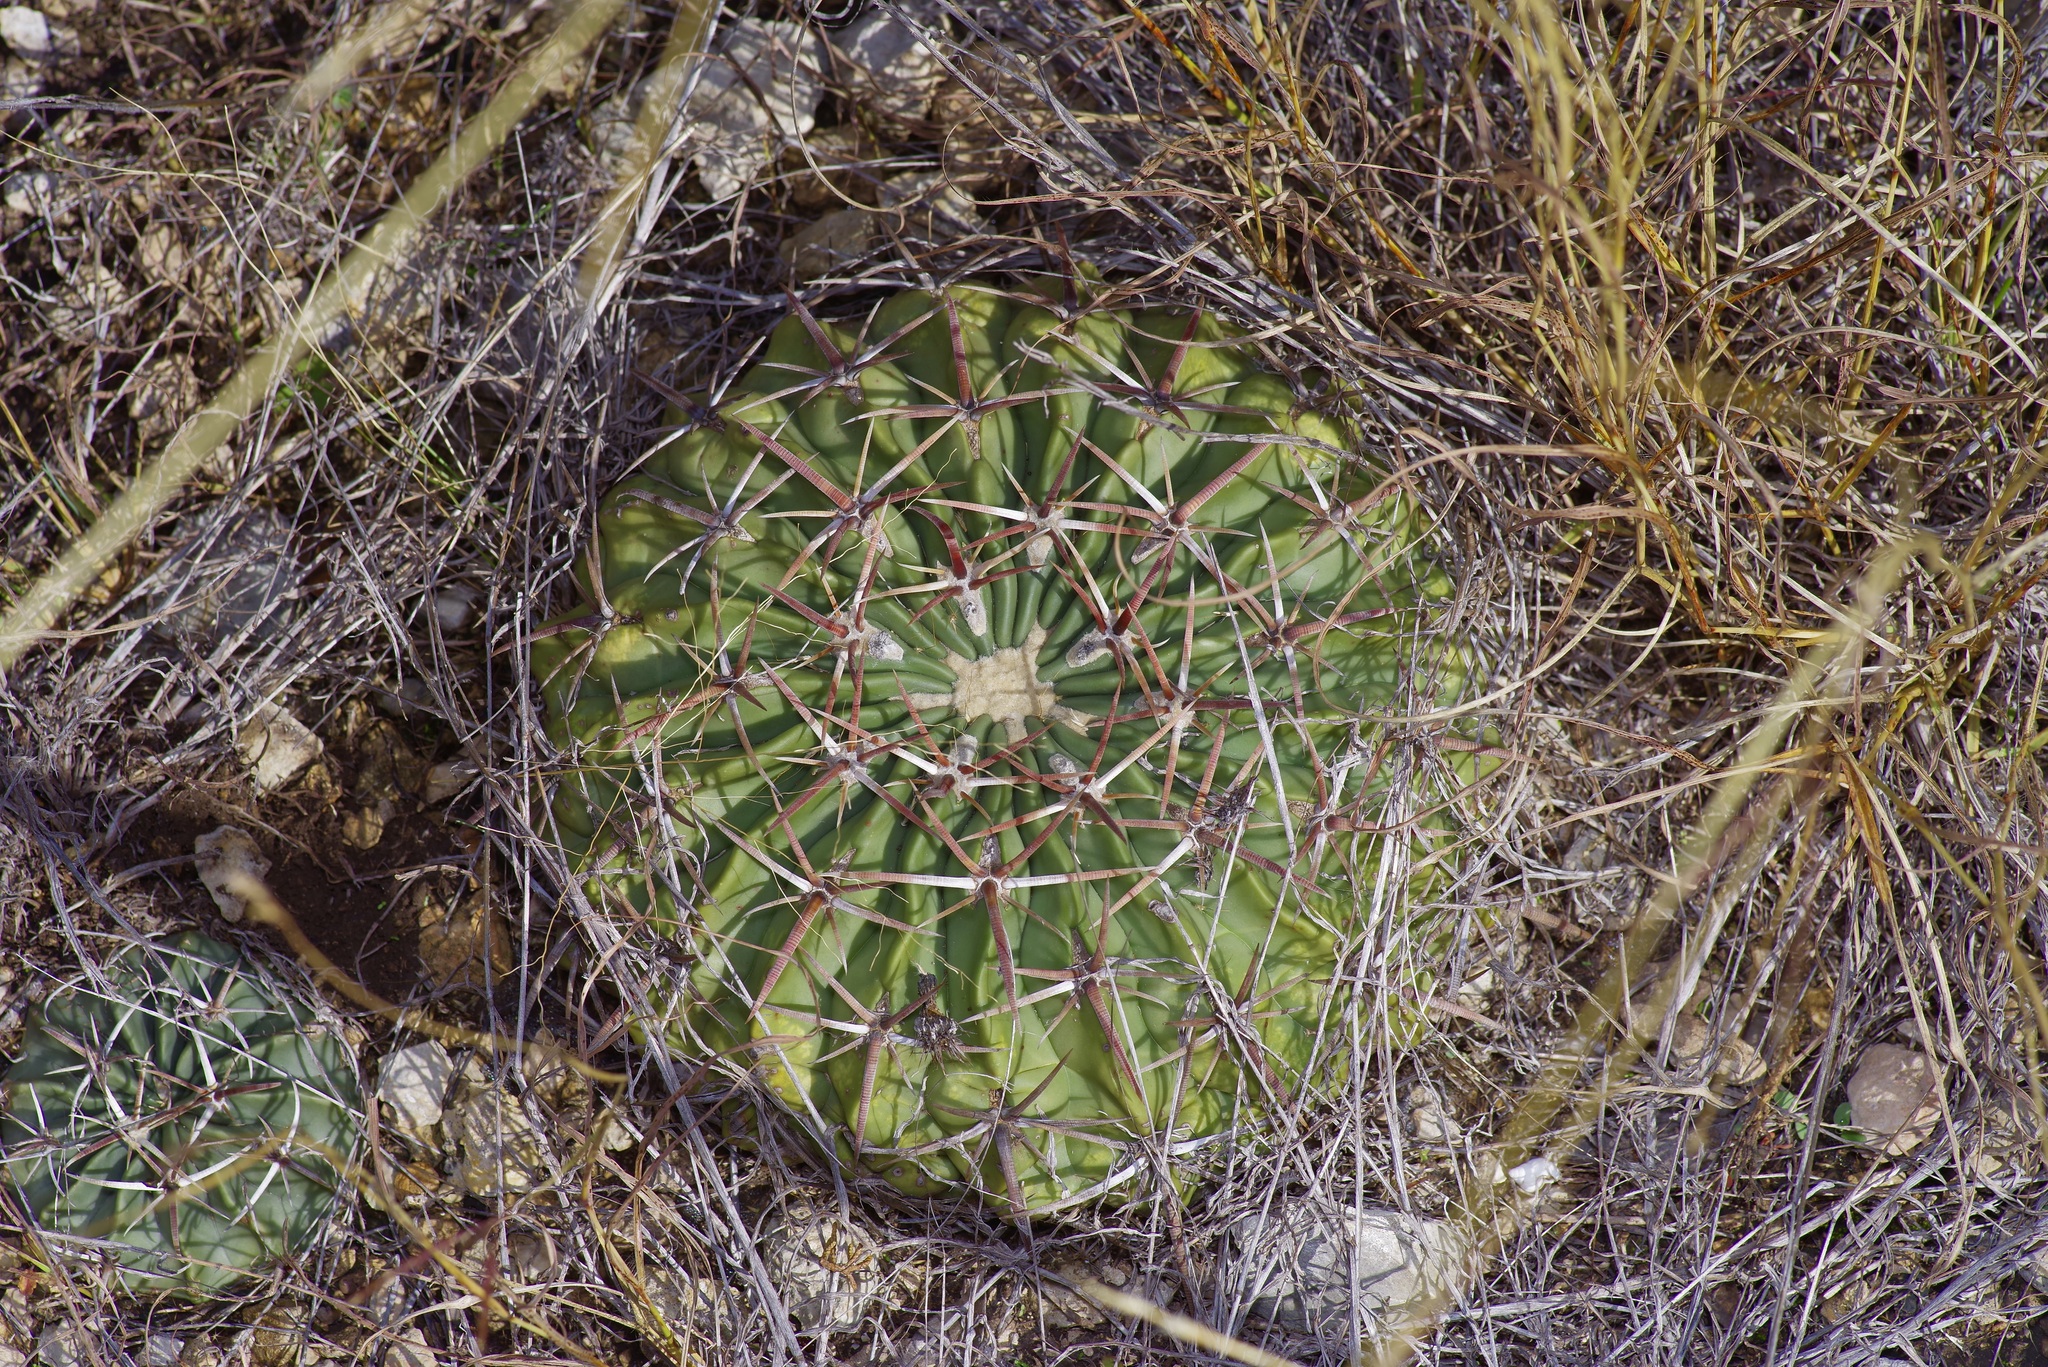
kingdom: Plantae
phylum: Tracheophyta
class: Magnoliopsida
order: Caryophyllales
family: Cactaceae
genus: Echinocactus
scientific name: Echinocactus texensis
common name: Devil's pincushion
